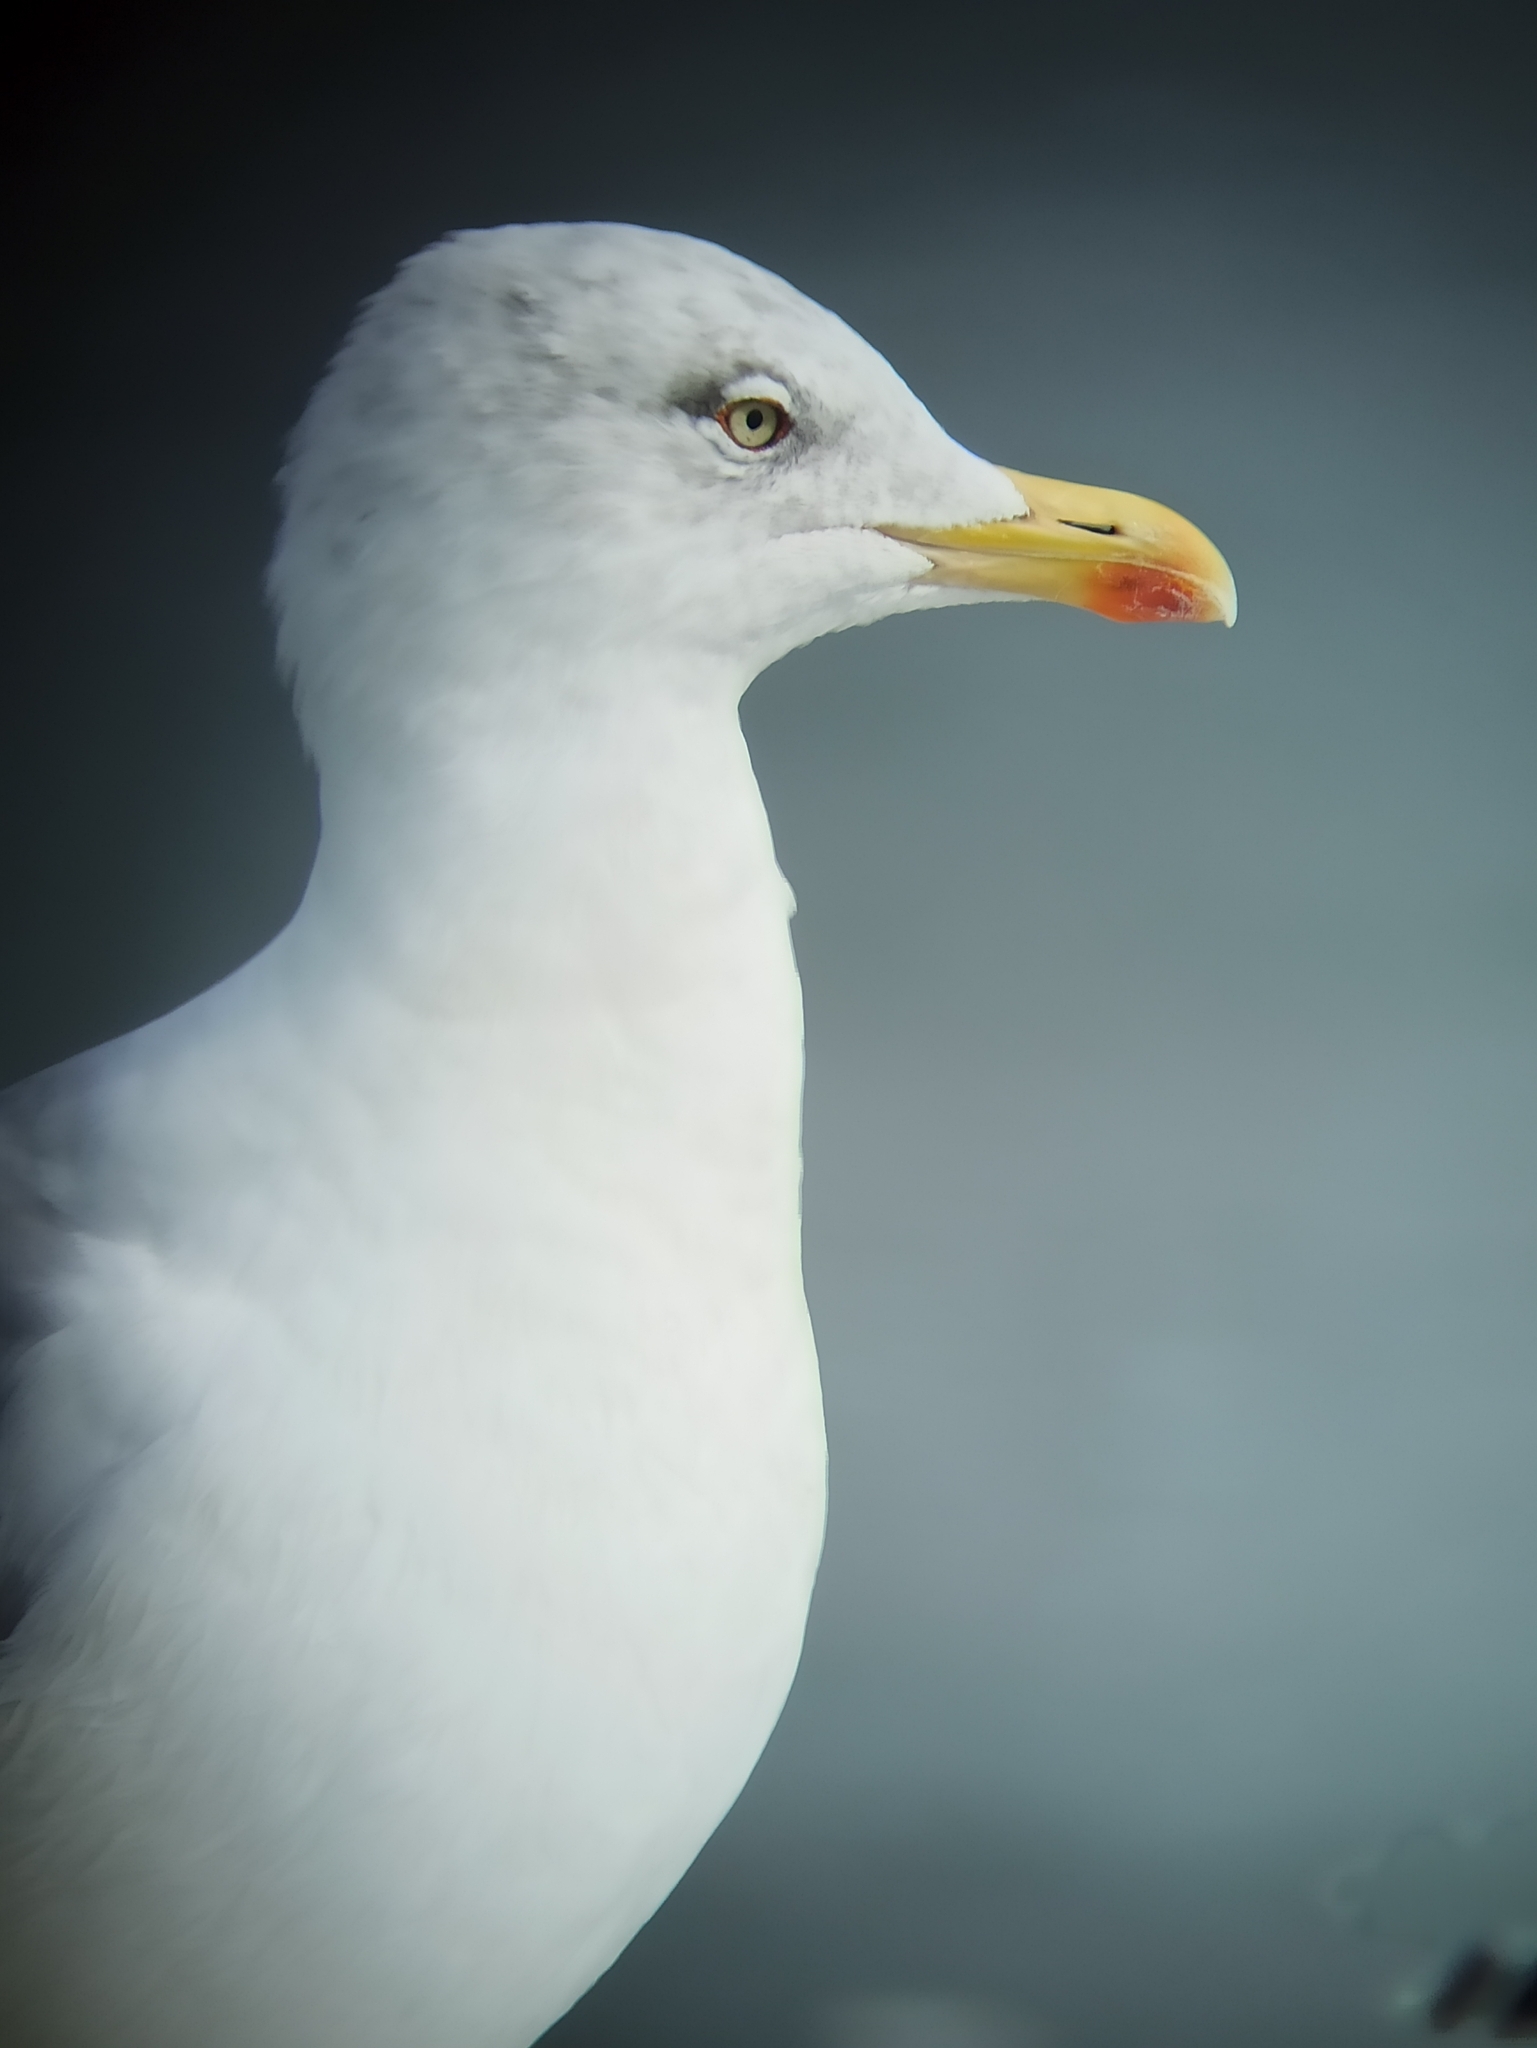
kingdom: Animalia
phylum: Chordata
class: Aves
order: Charadriiformes
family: Laridae
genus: Larus
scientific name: Larus argentatus
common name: Herring gull
